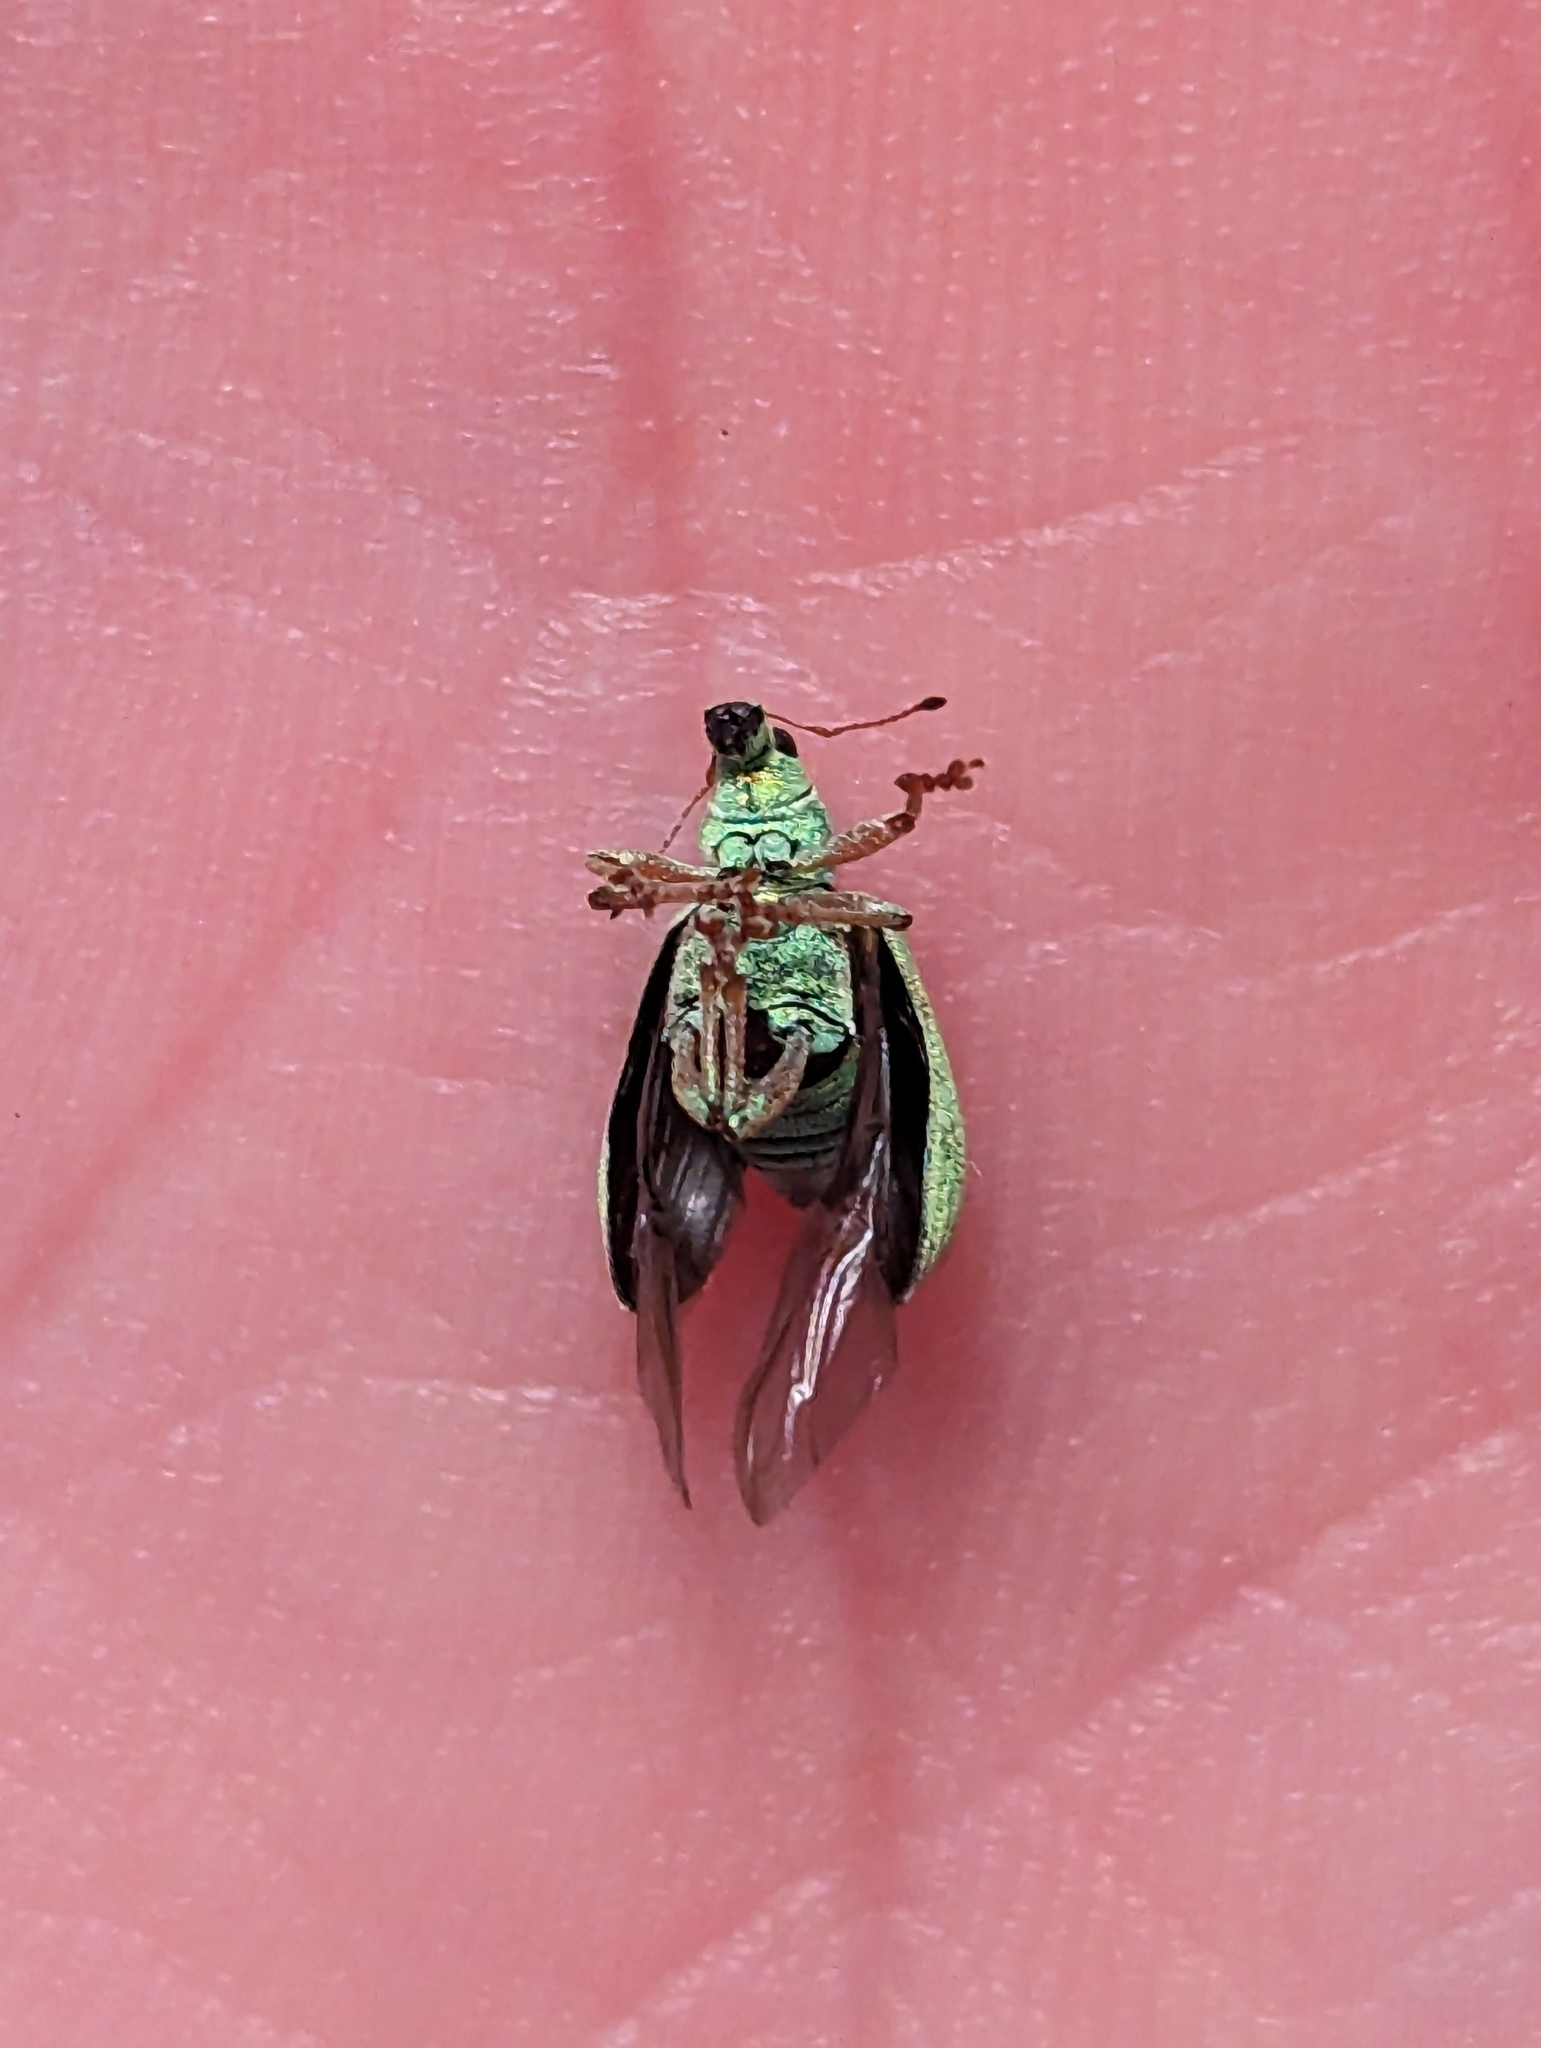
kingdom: Animalia
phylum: Arthropoda
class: Insecta
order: Coleoptera
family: Curculionidae
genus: Polydrusus
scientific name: Polydrusus formosus
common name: Weevil
